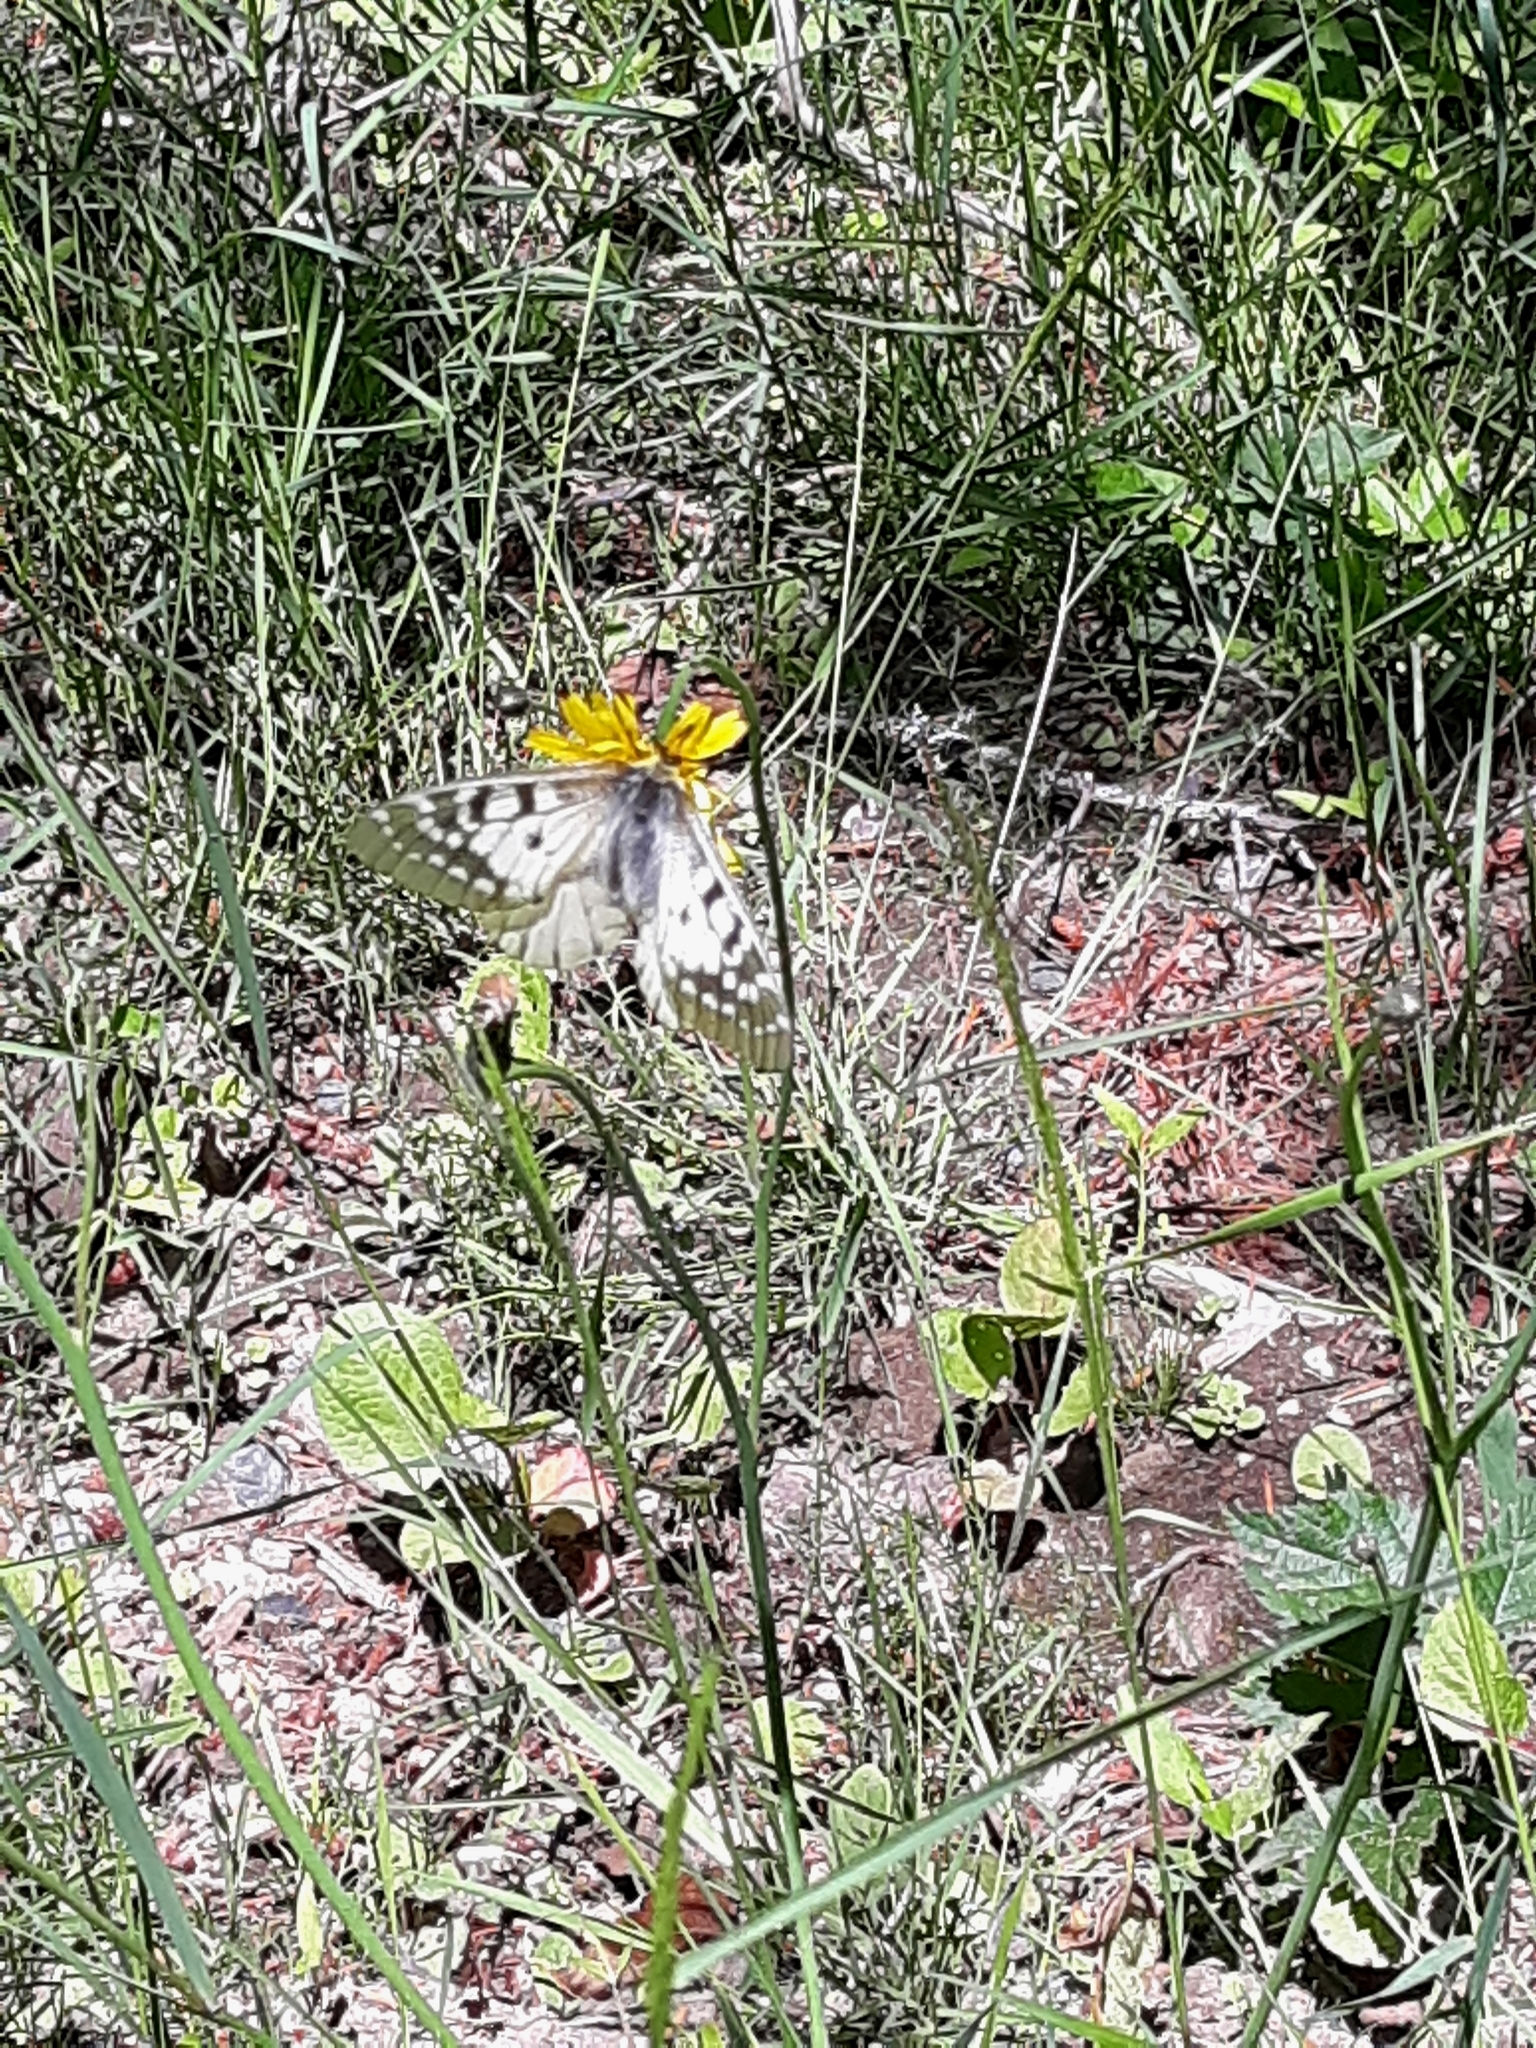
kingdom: Animalia
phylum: Arthropoda
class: Insecta
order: Lepidoptera
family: Papilionidae
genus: Parnassius
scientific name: Parnassius clodius
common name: American apollo
